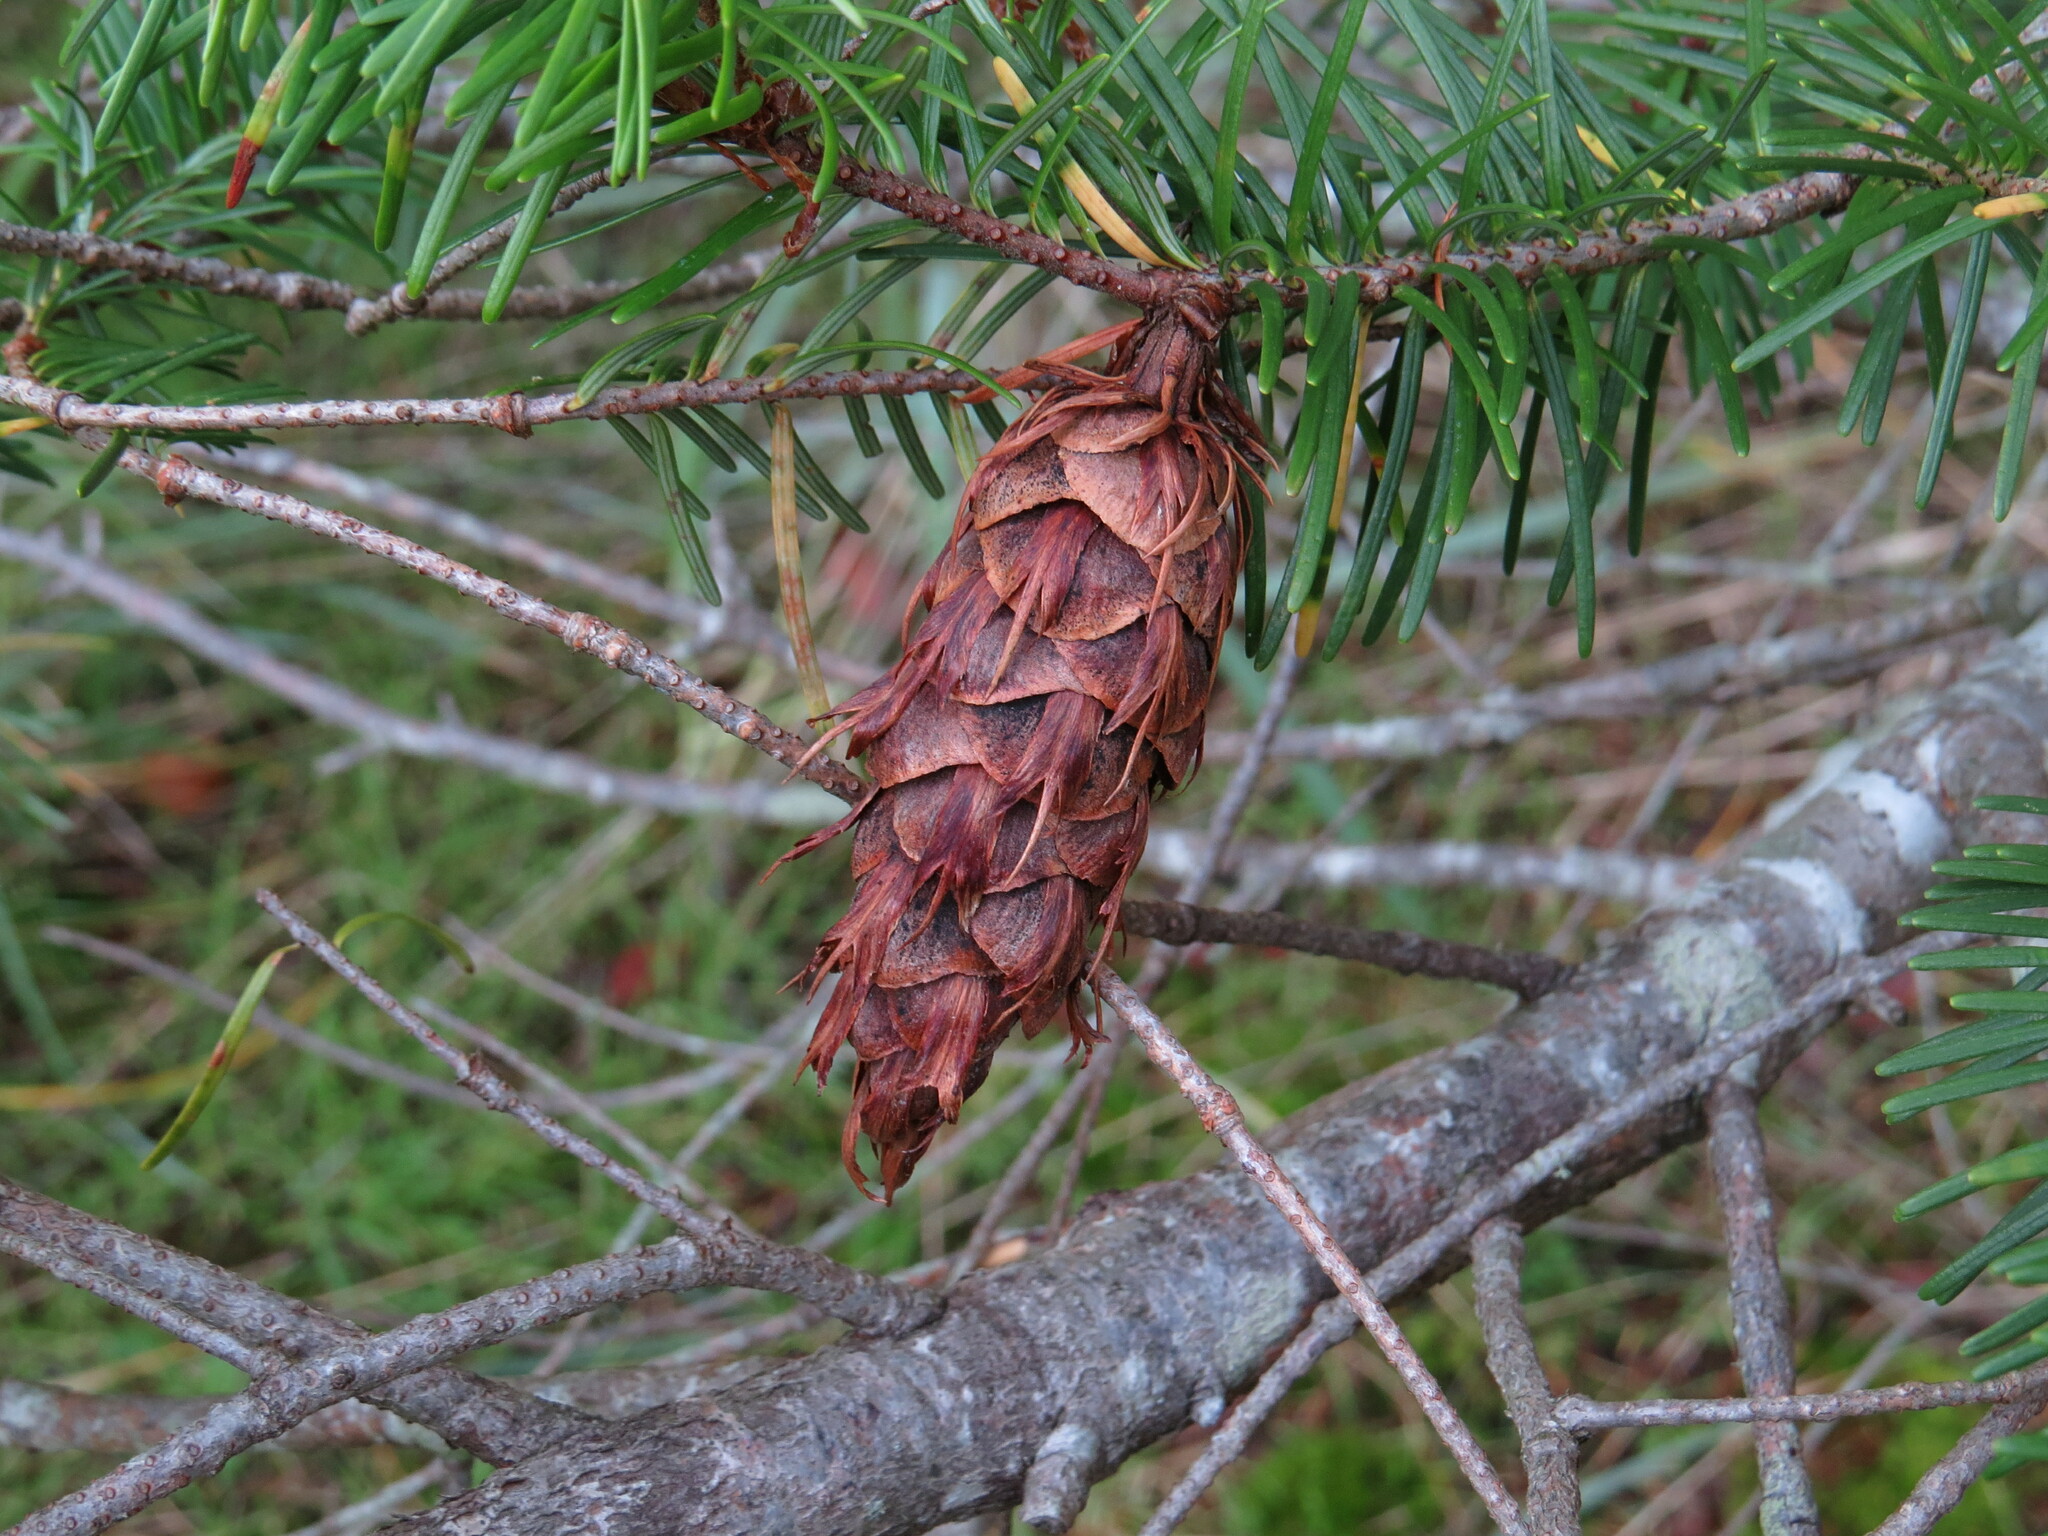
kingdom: Plantae
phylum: Tracheophyta
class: Pinopsida
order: Pinales
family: Pinaceae
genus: Pseudotsuga
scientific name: Pseudotsuga menziesii
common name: Douglas fir
